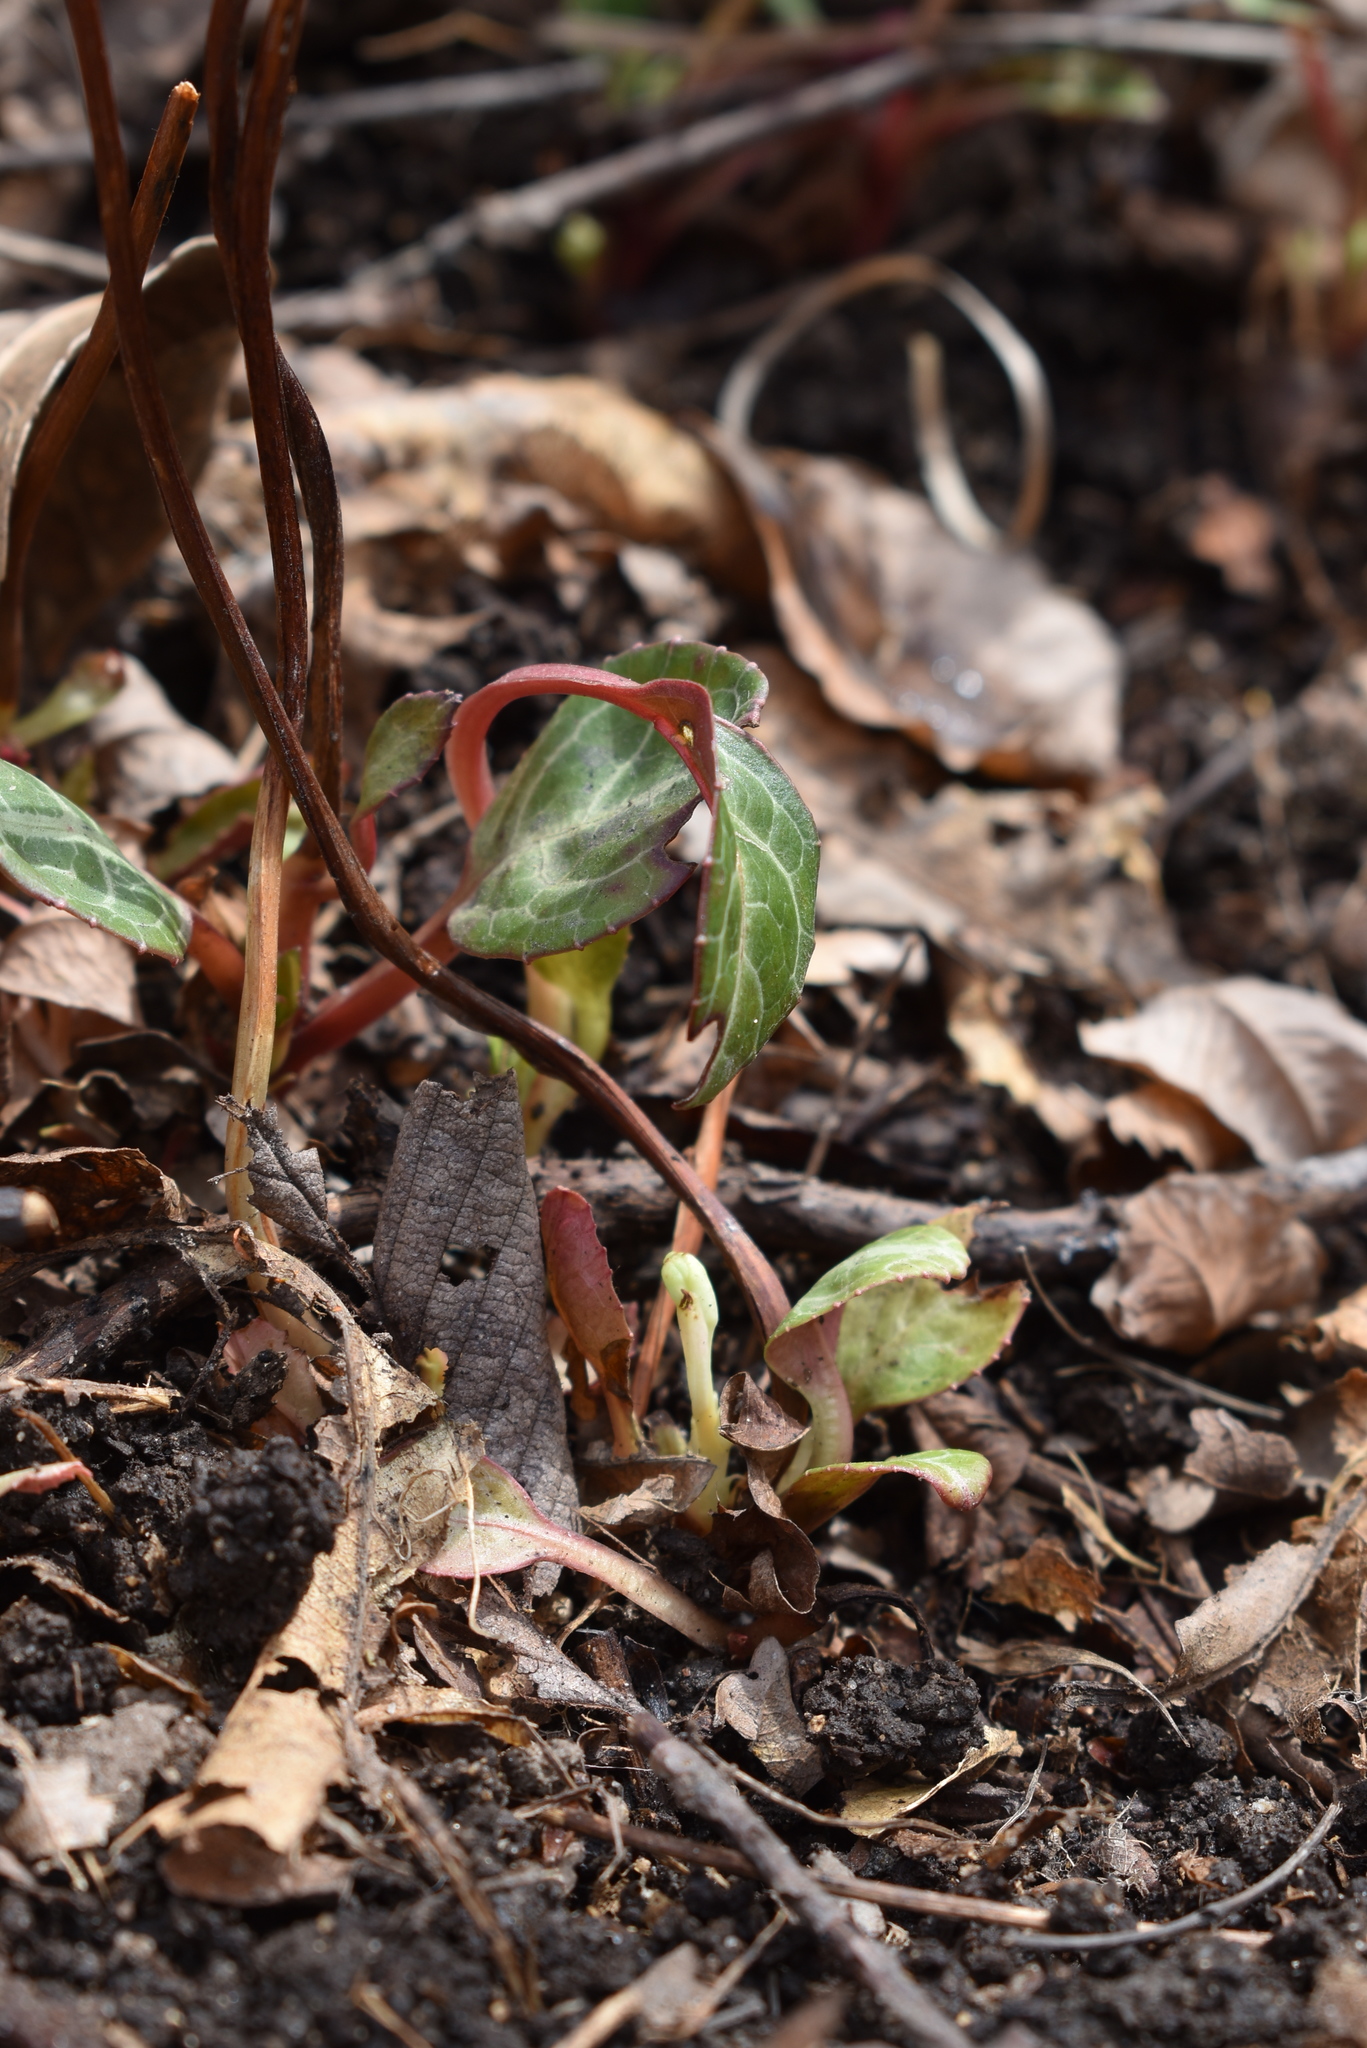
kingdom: Plantae
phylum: Tracheophyta
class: Magnoliopsida
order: Ericales
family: Ericaceae
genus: Pyrola
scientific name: Pyrola japonica
